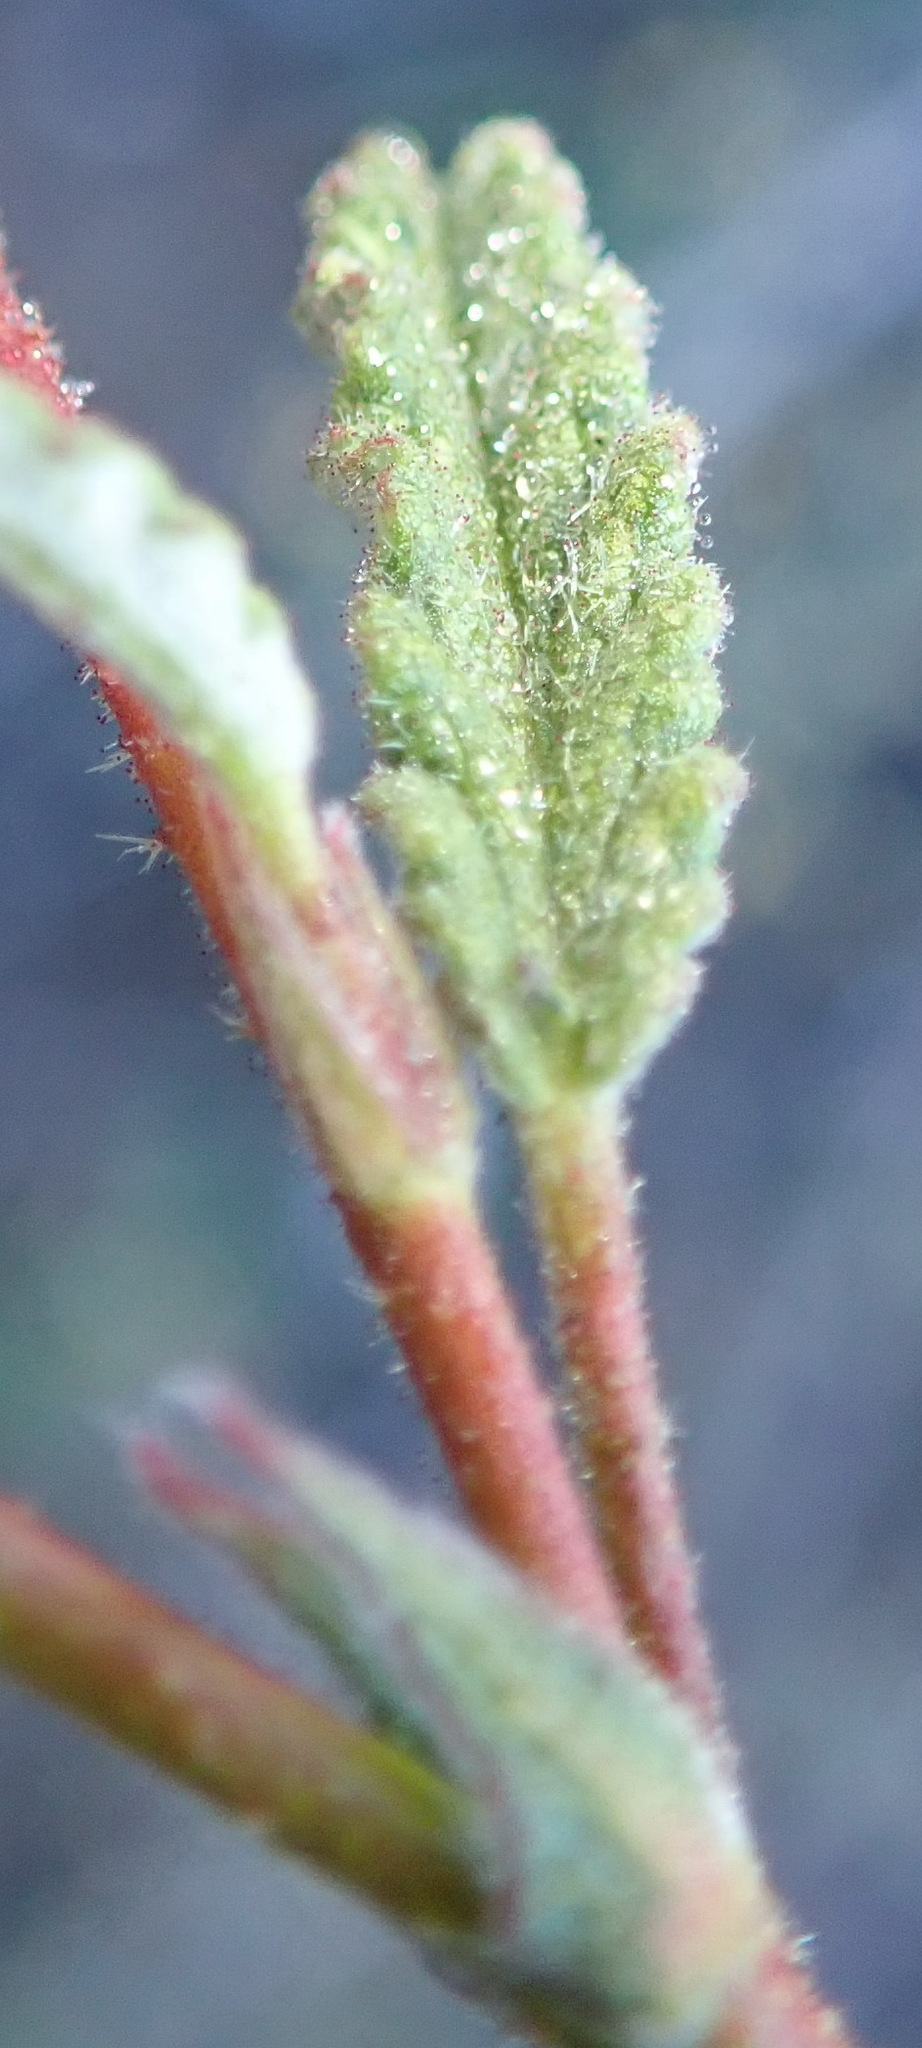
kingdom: Plantae
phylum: Tracheophyta
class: Magnoliopsida
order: Malvales
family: Malvaceae
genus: Hermannia
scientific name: Hermannia althaeoides
